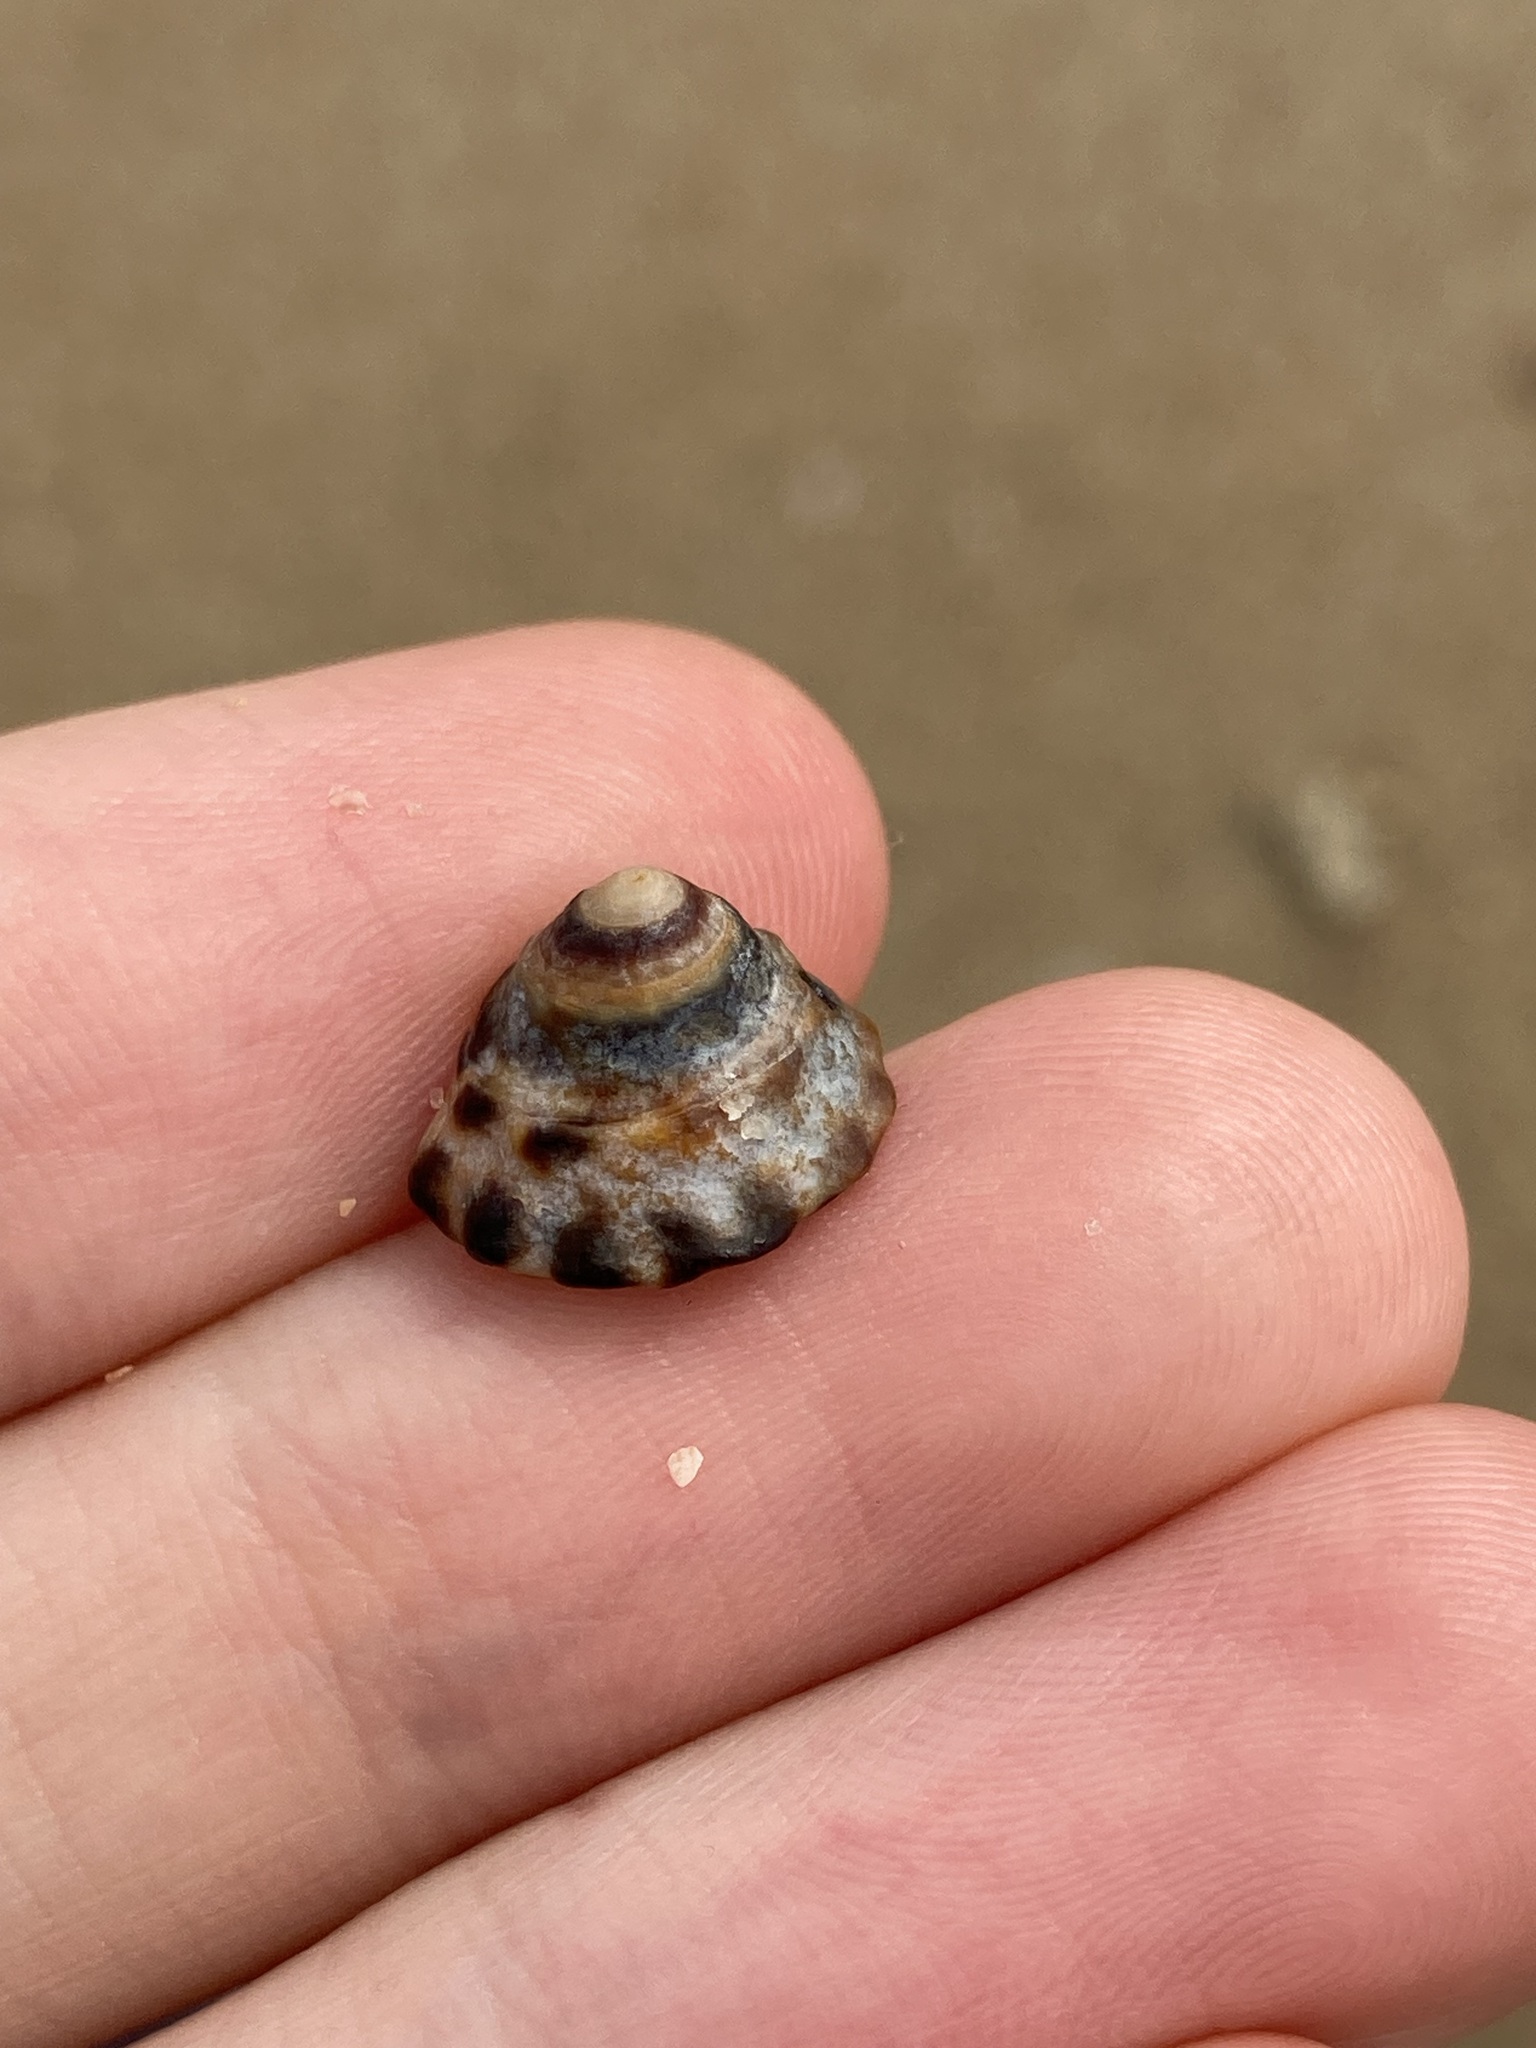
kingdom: Animalia
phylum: Mollusca
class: Gastropoda
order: Littorinimorpha
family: Littorinidae
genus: Bembicium
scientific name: Bembicium auratum
